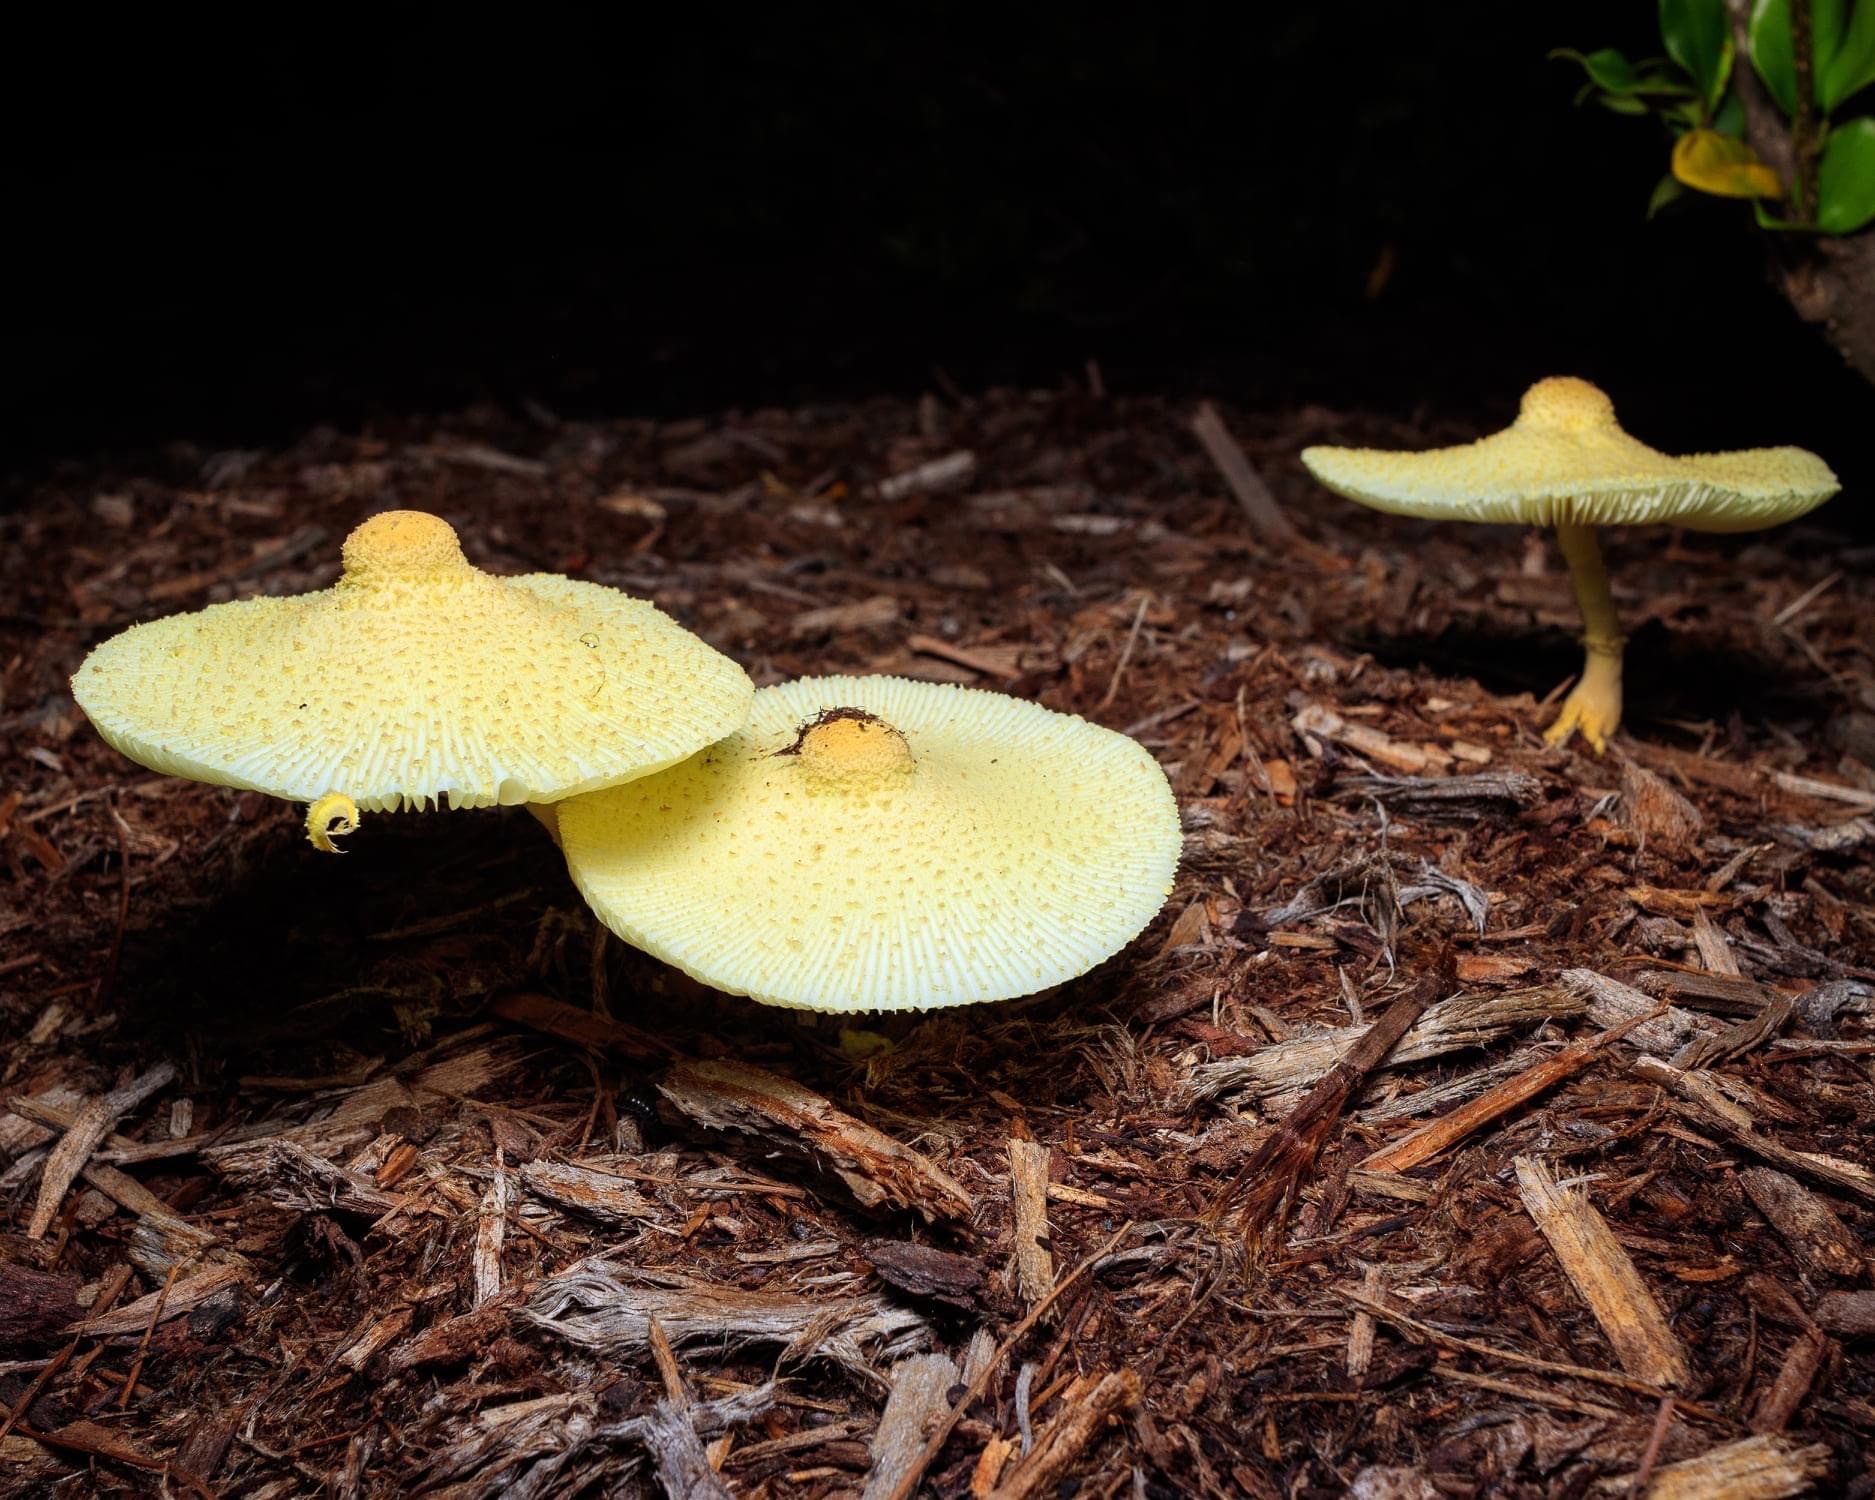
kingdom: Fungi
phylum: Basidiomycota
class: Agaricomycetes
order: Agaricales
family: Agaricaceae
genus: Leucocoprinus
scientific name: Leucocoprinus tricolor
